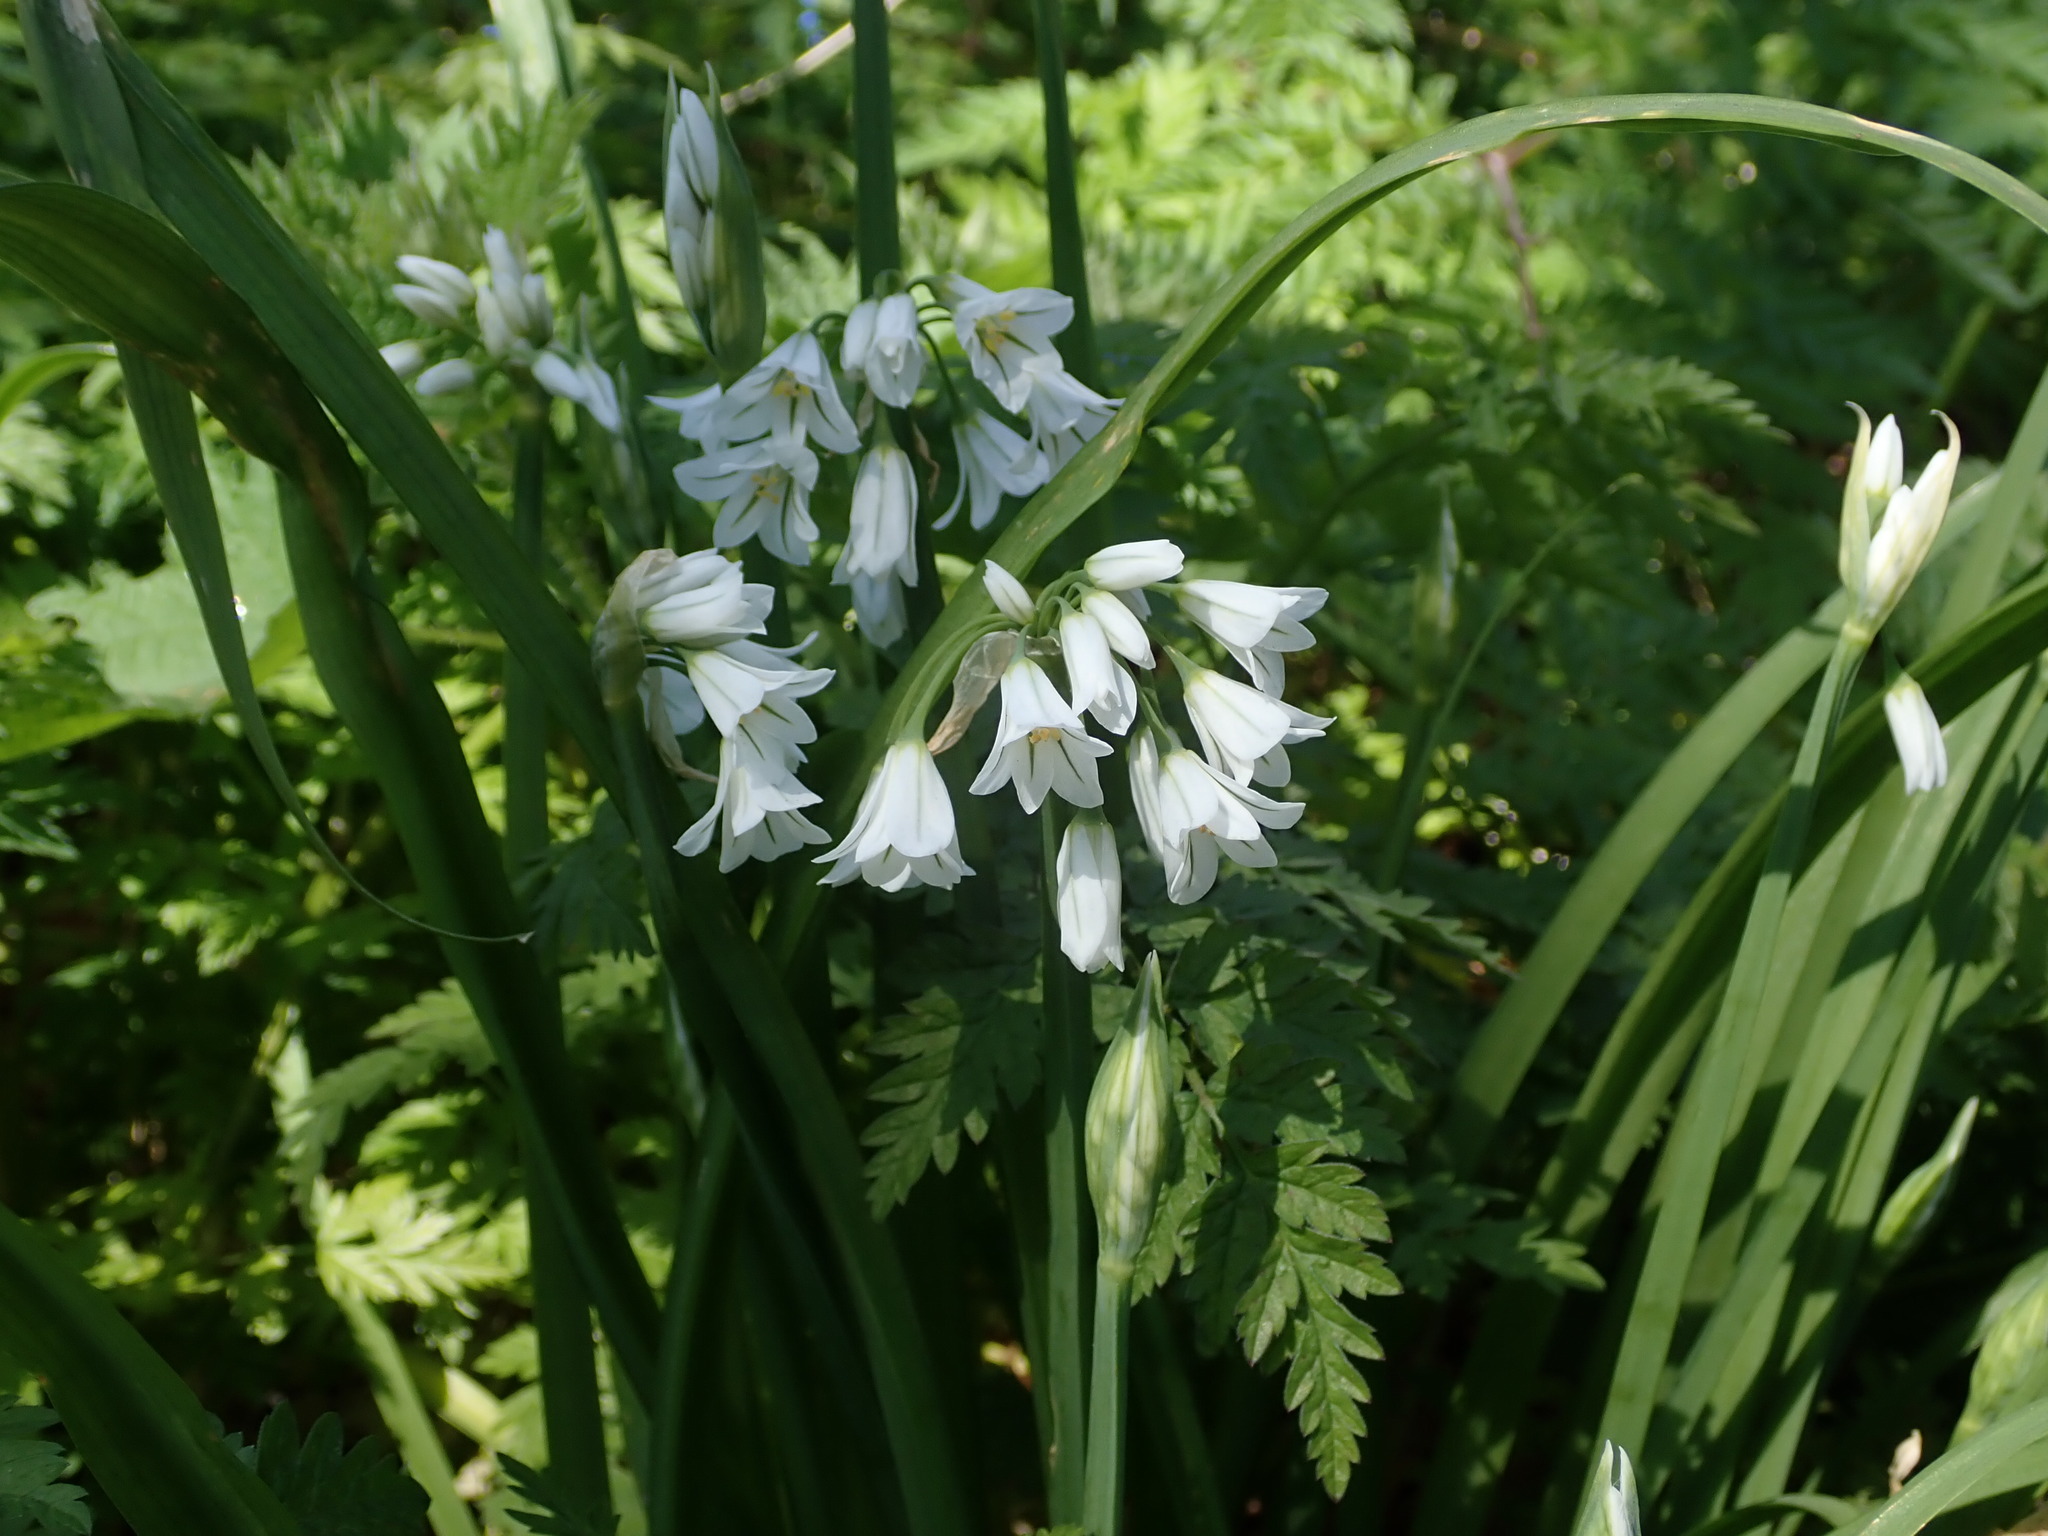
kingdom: Plantae
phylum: Tracheophyta
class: Liliopsida
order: Asparagales
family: Amaryllidaceae
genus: Allium
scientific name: Allium triquetrum
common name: Three-cornered garlic
